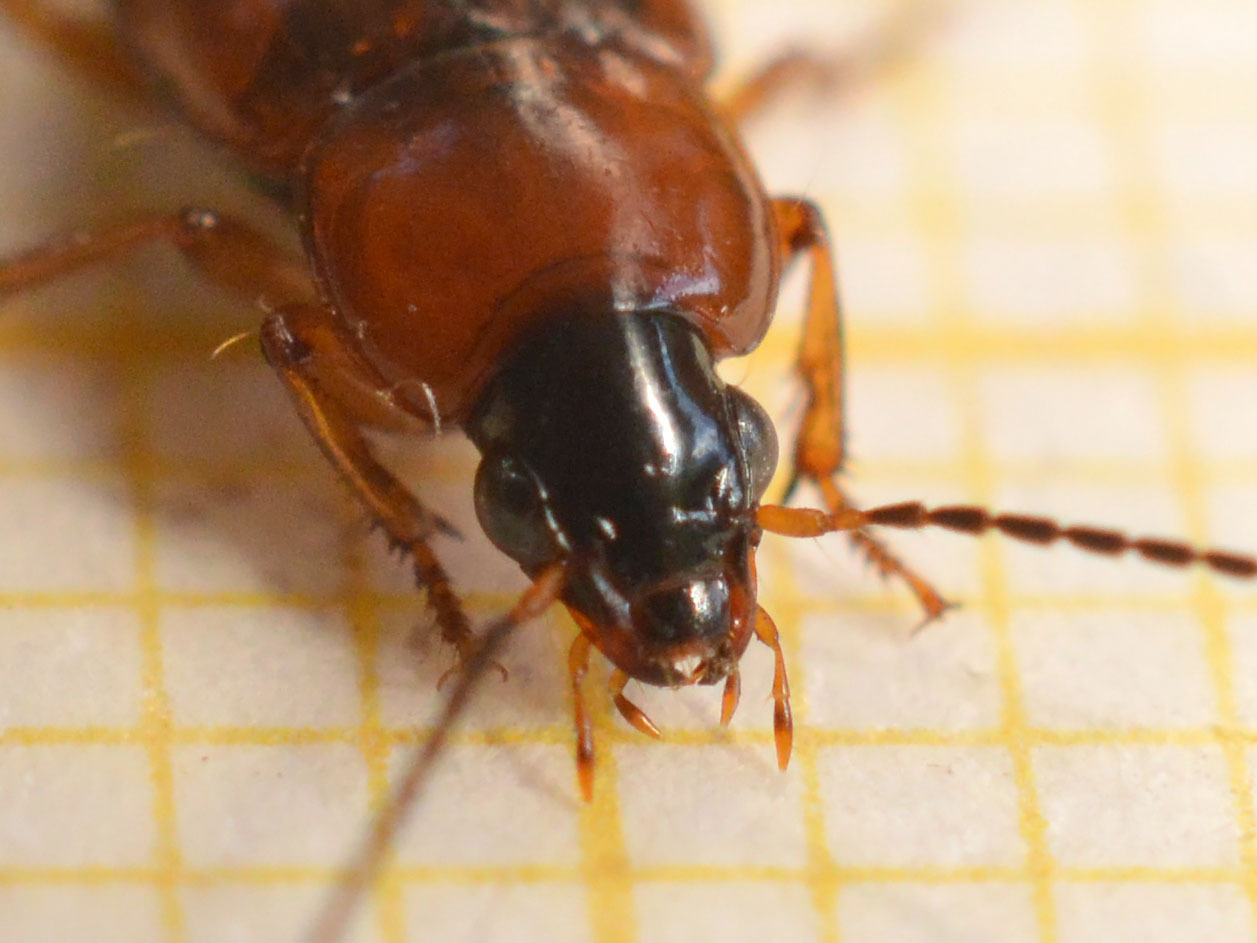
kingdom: Animalia
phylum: Arthropoda
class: Insecta
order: Coleoptera
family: Carabidae
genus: Stenolophus
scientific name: Stenolophus skrimshiranus
